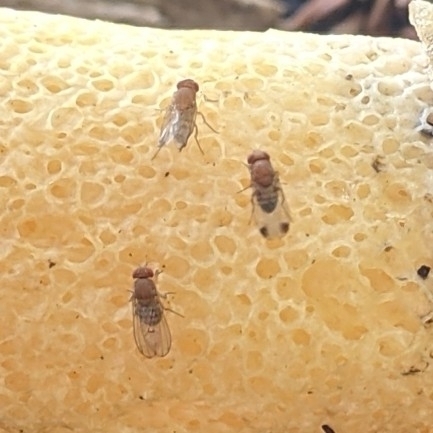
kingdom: Animalia
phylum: Arthropoda
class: Insecta
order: Diptera
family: Drosophilidae
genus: Drosophila
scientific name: Drosophila suzukii
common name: Spotted-wing drosophila
